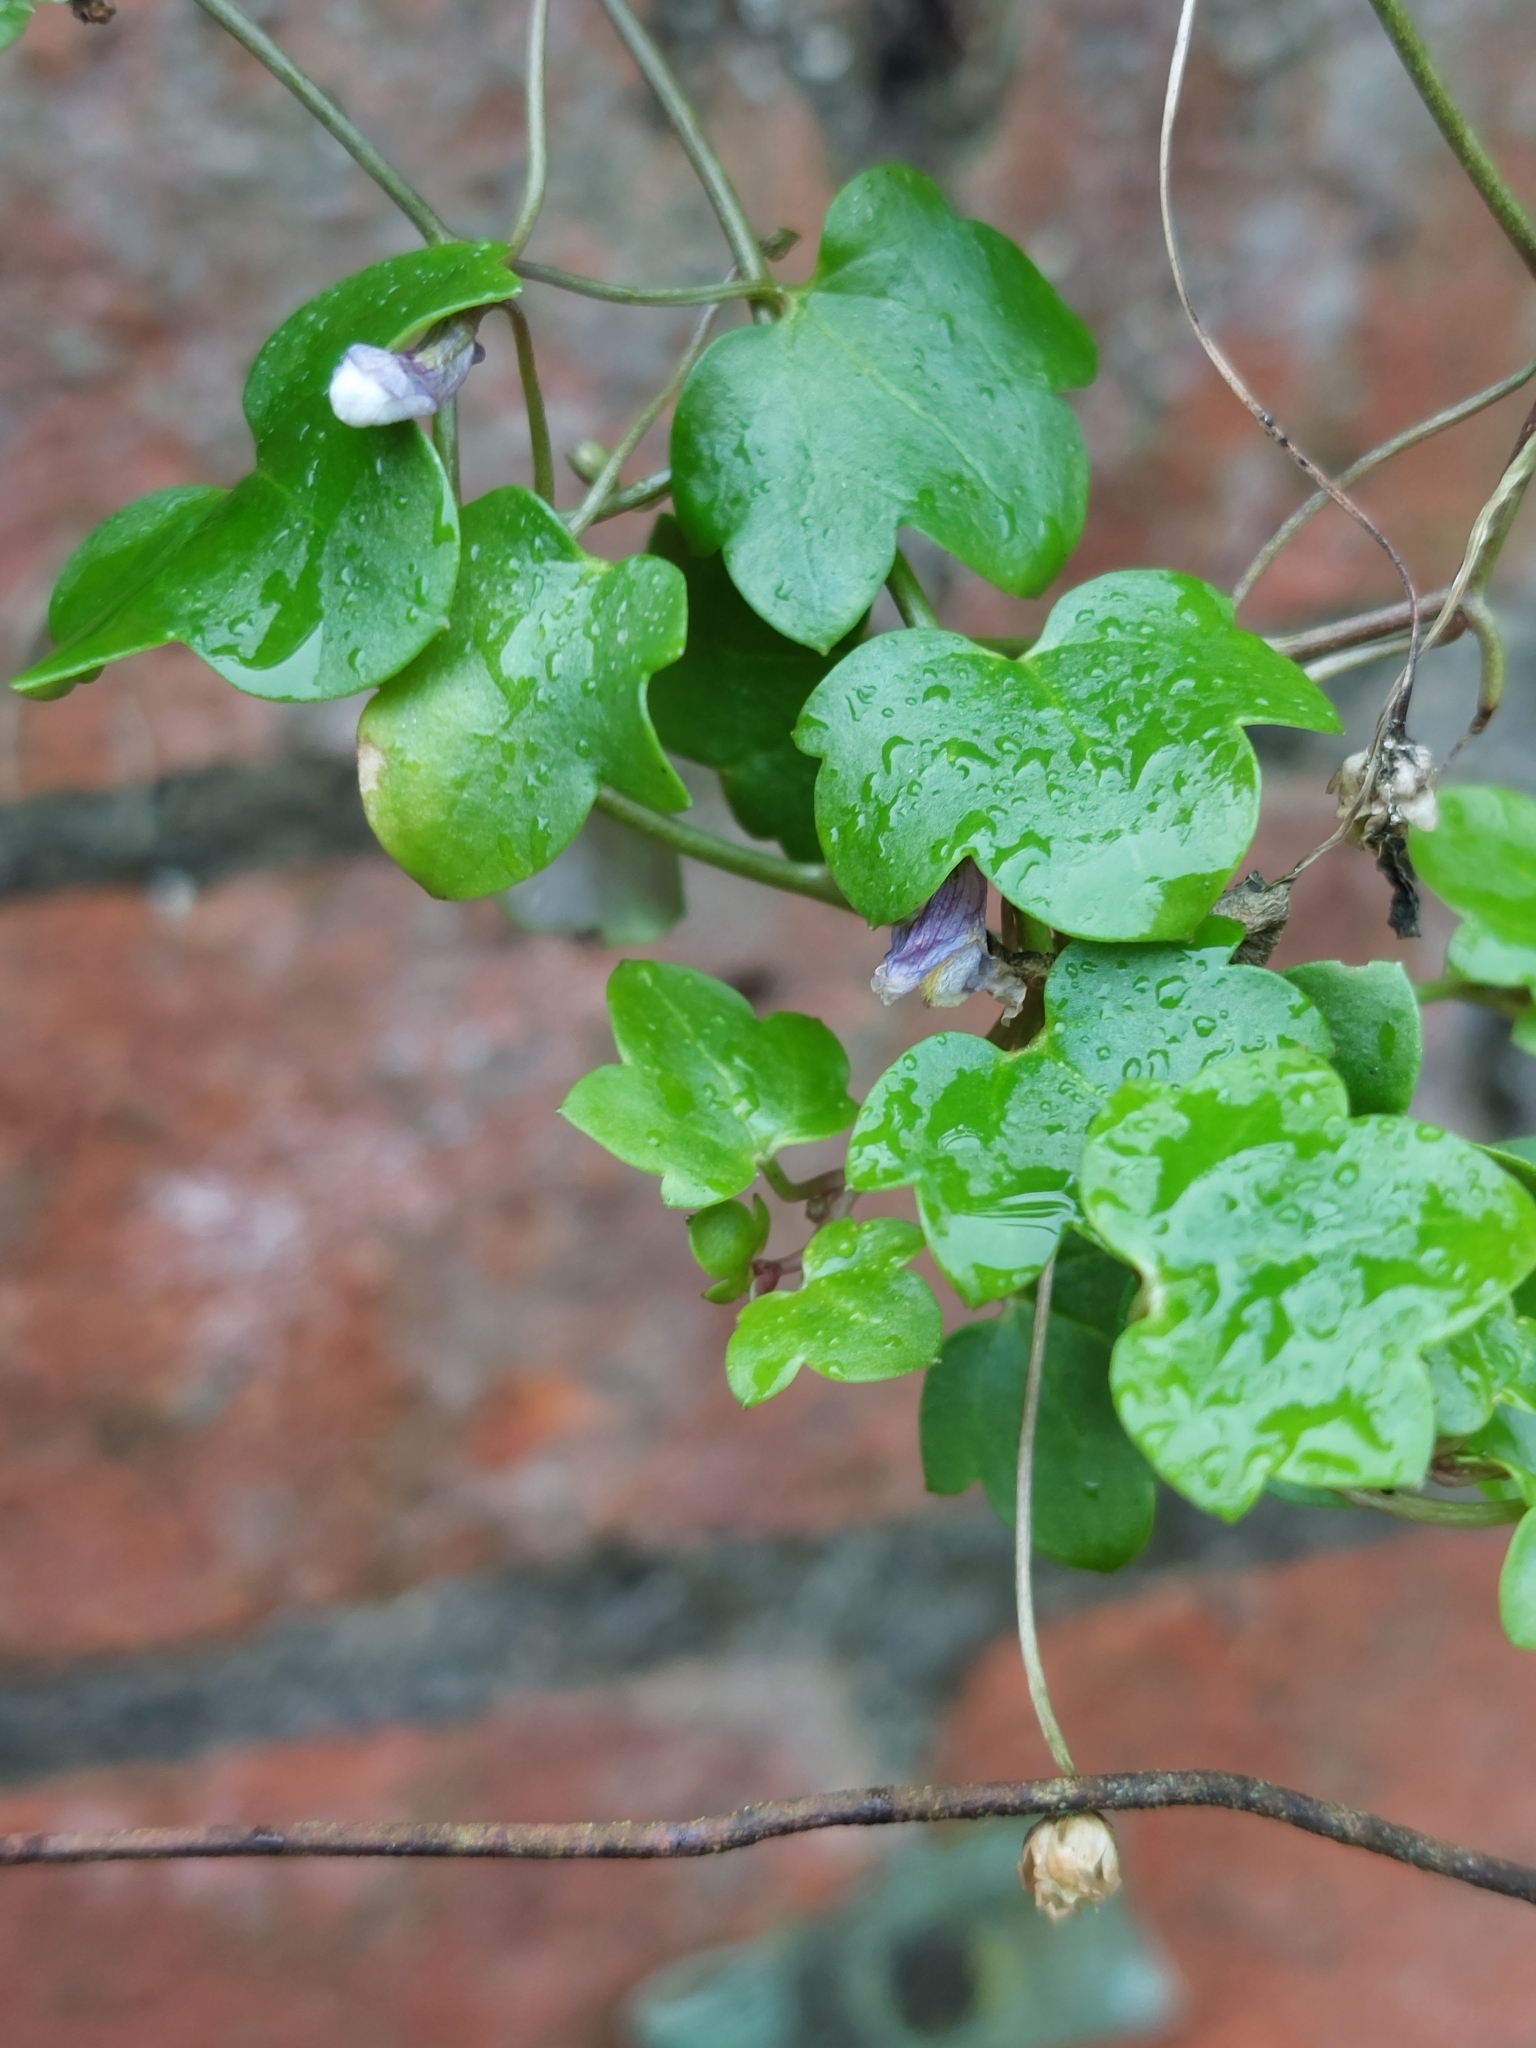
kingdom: Plantae
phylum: Tracheophyta
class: Magnoliopsida
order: Lamiales
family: Plantaginaceae
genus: Cymbalaria
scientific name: Cymbalaria muralis
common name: Ivy-leaved toadflax
